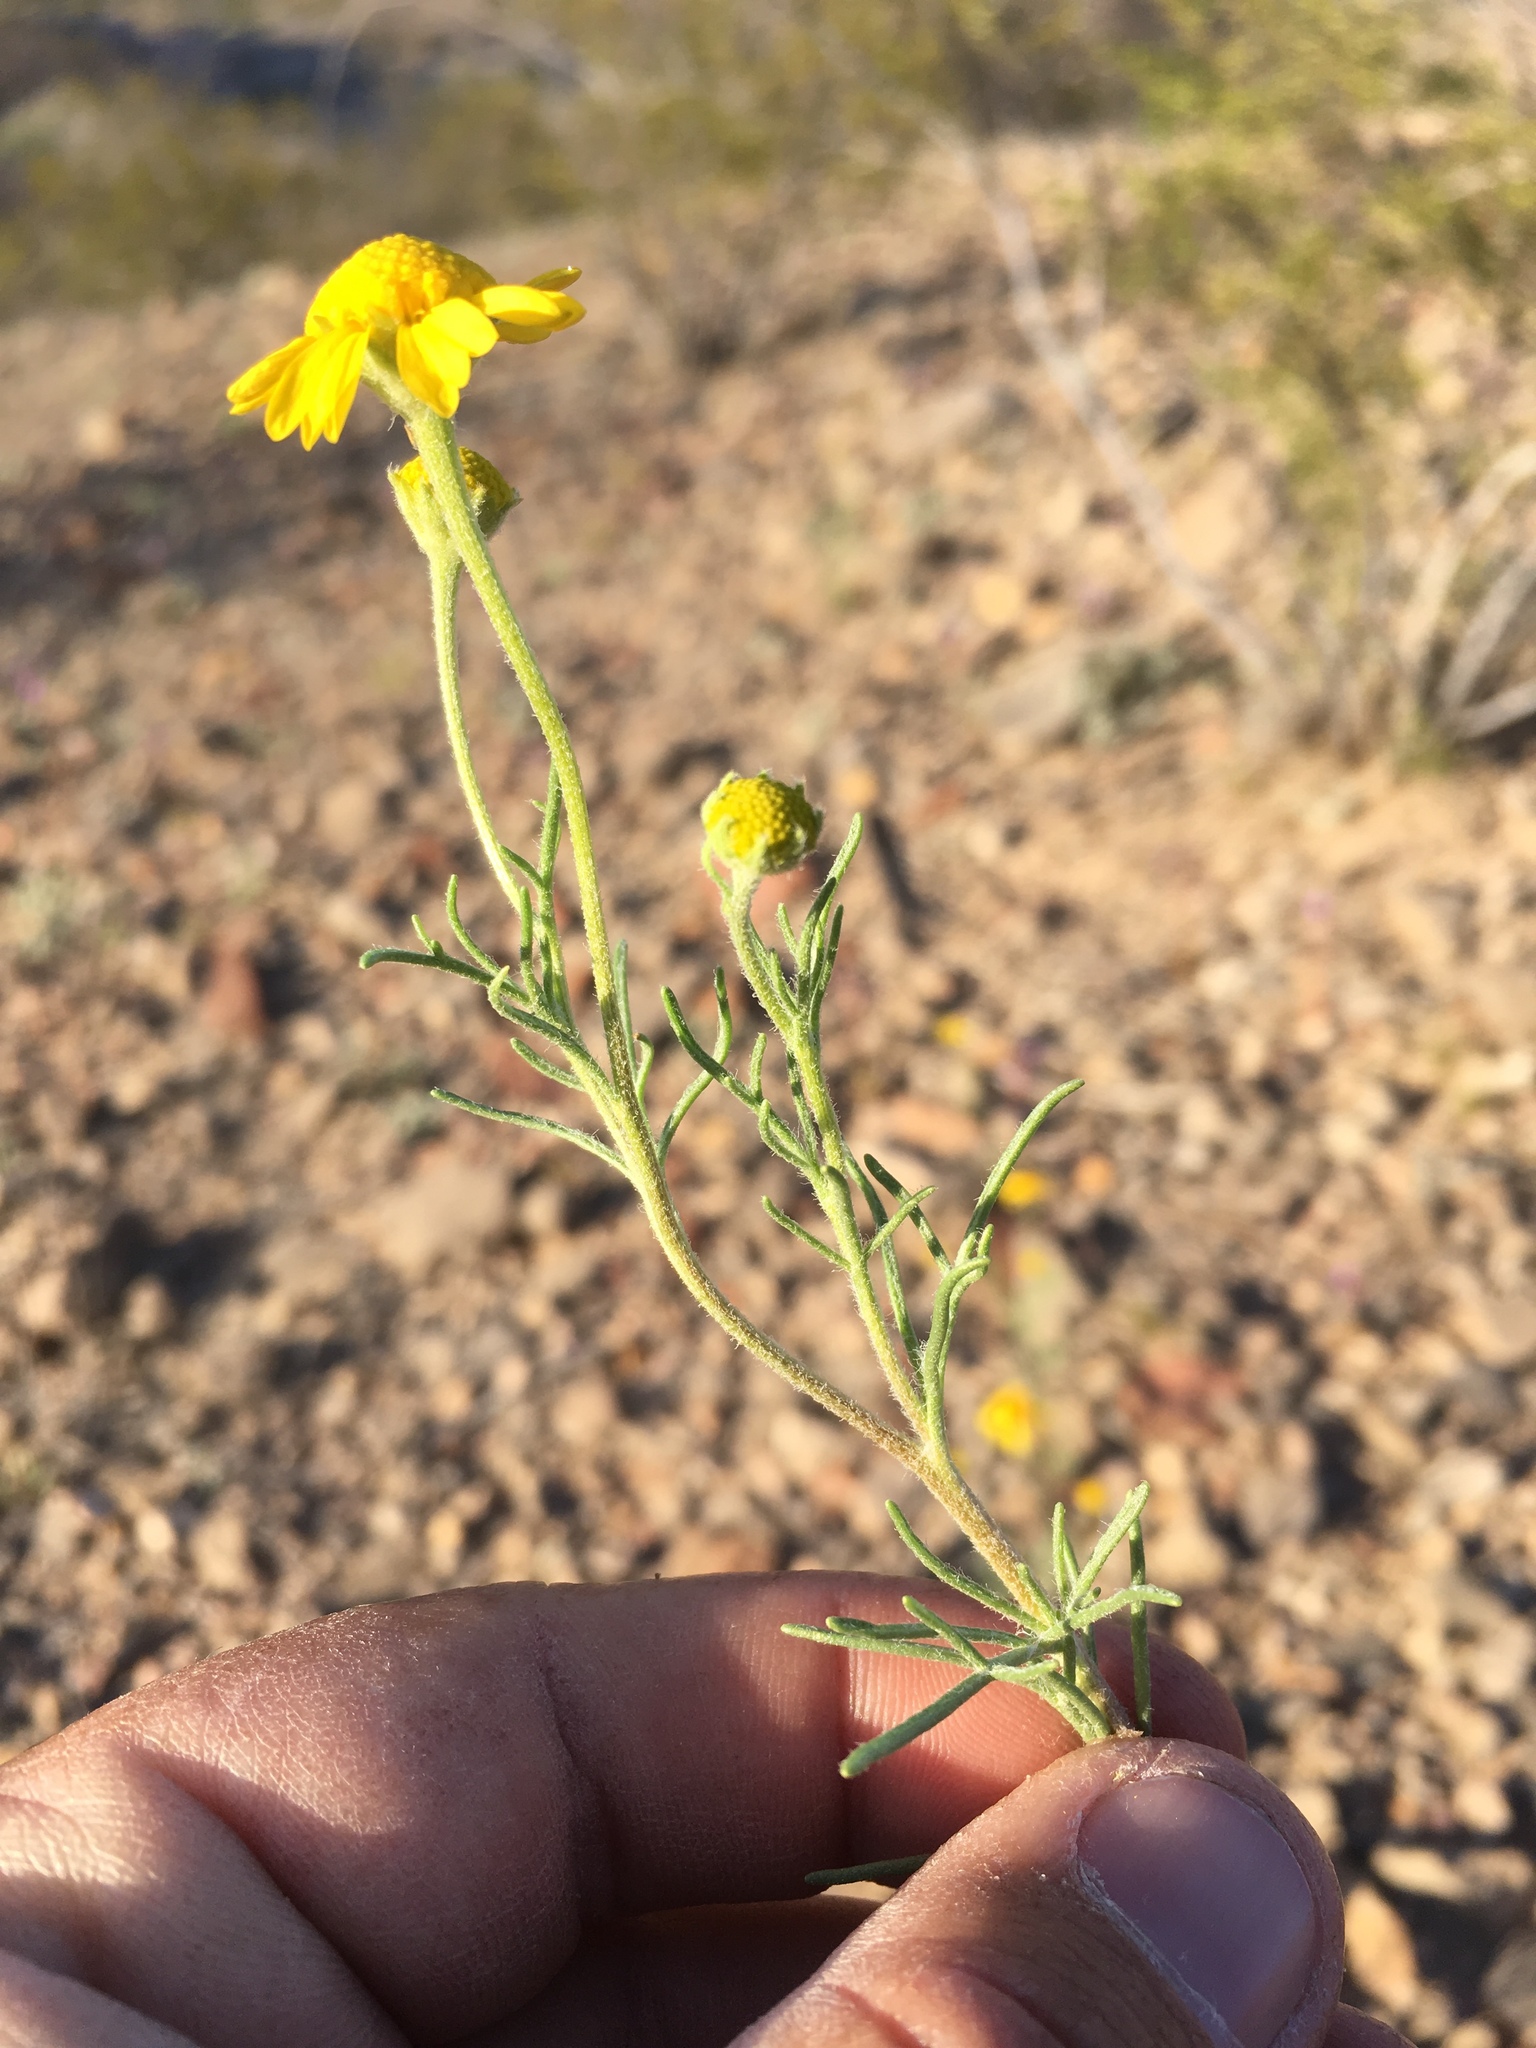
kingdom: Plantae
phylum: Tracheophyta
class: Magnoliopsida
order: Asterales
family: Asteraceae
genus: Hymenoxys
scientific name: Hymenoxys odorata
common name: Bitter rubberweed
